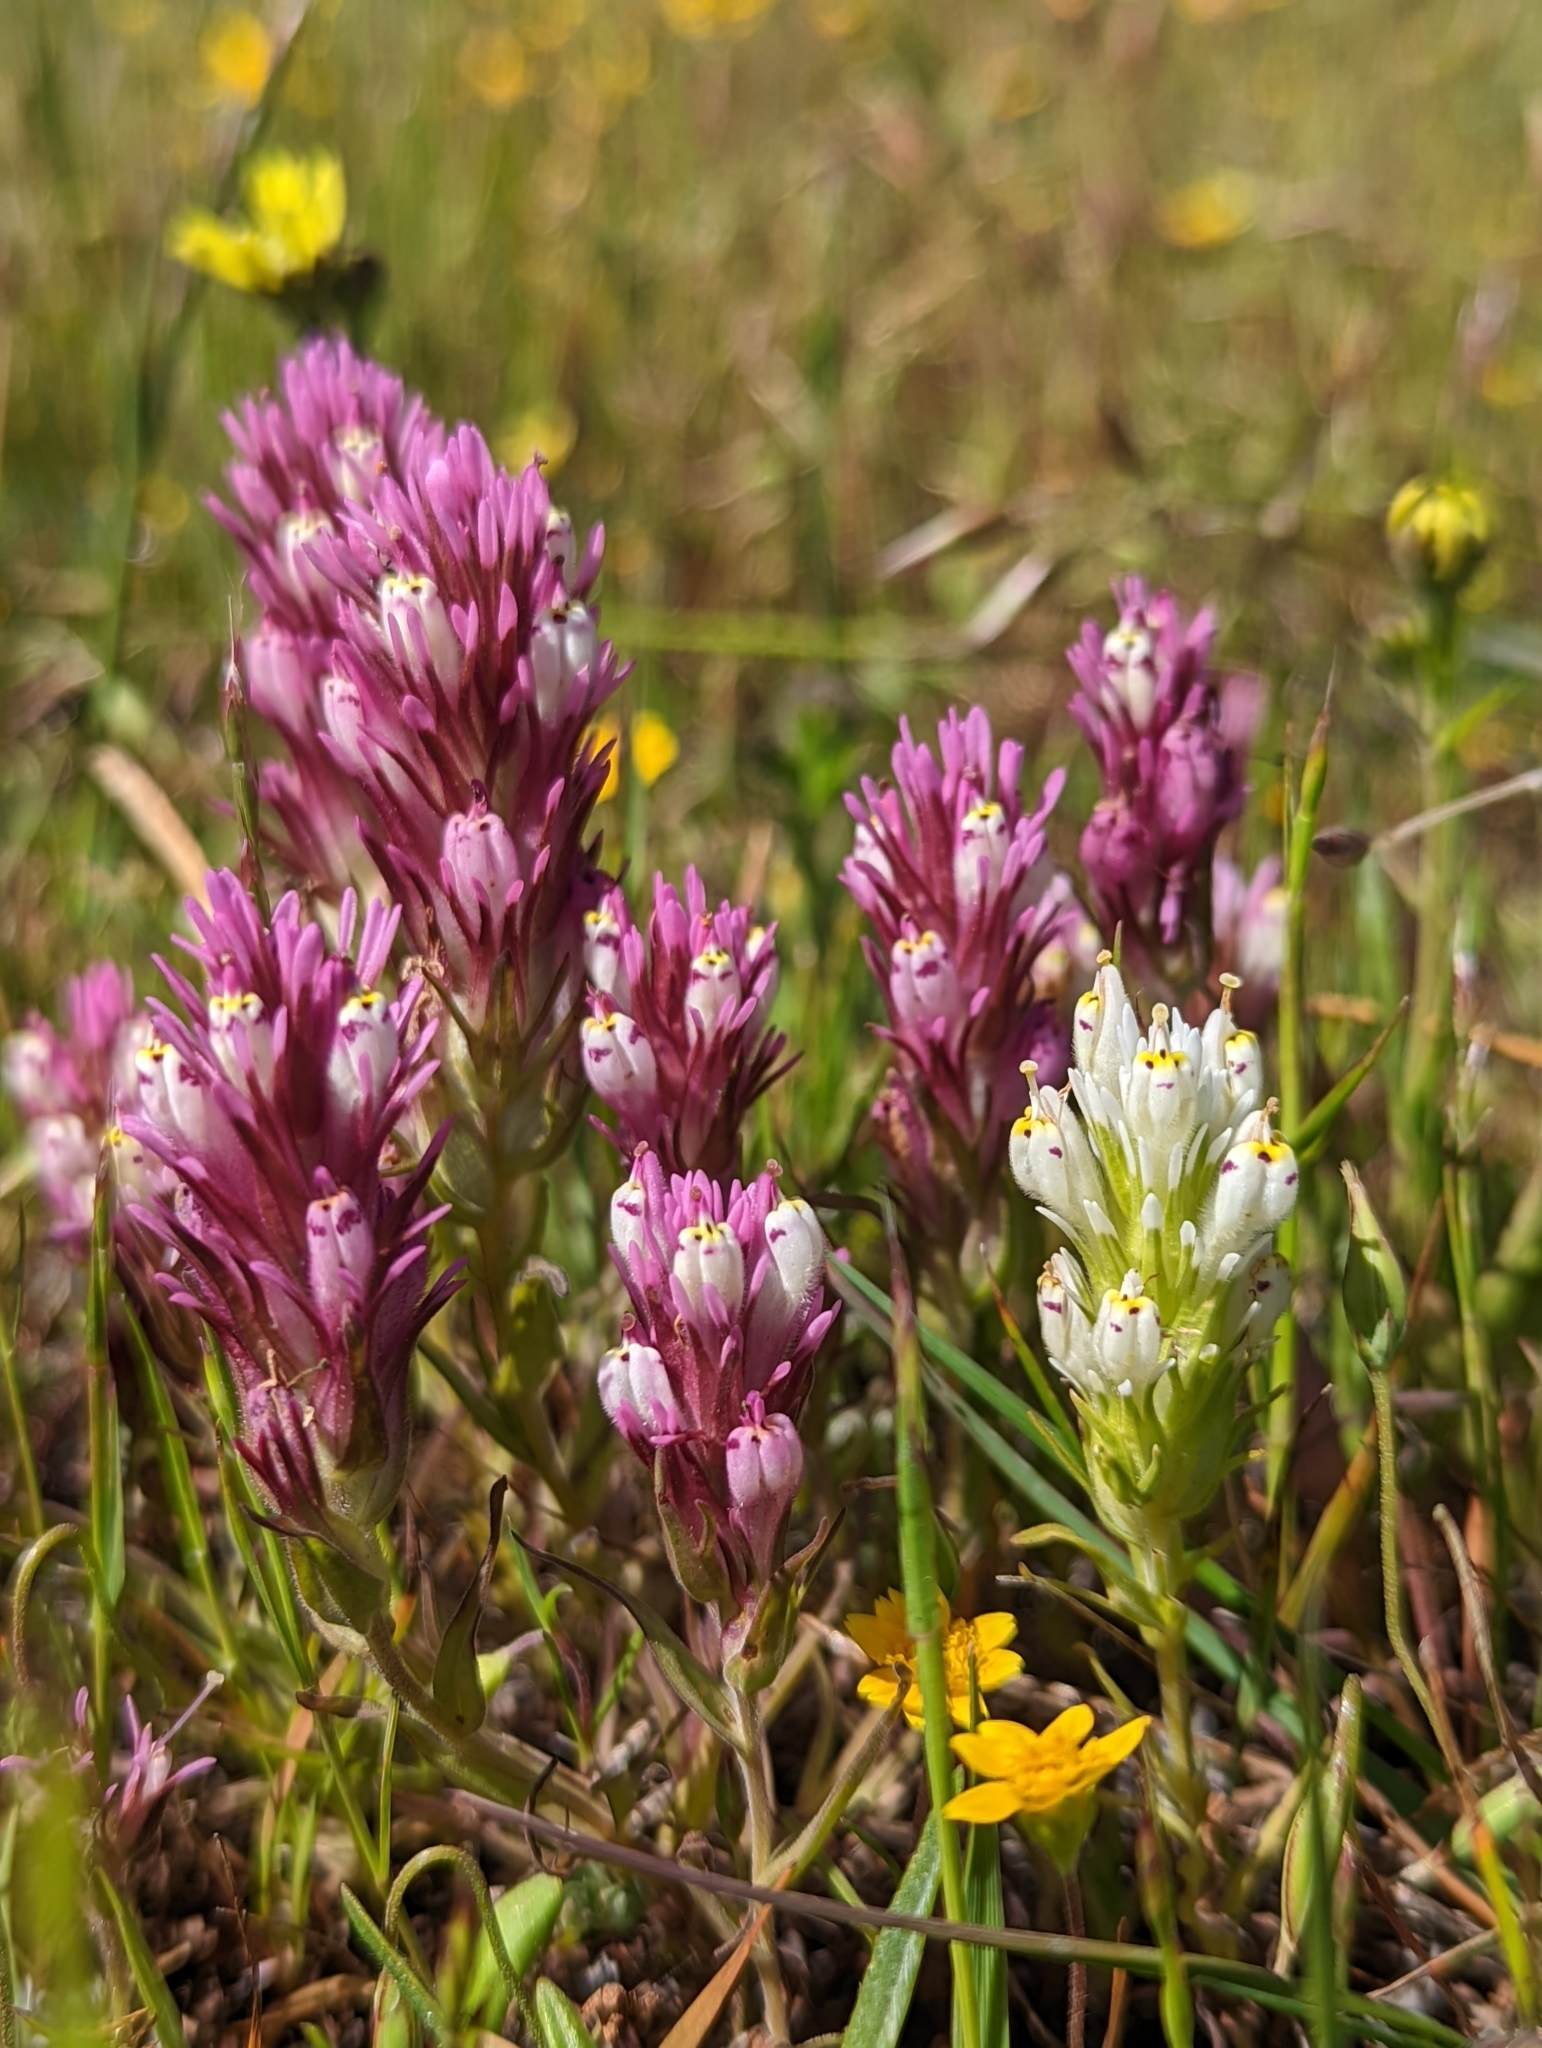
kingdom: Plantae
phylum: Tracheophyta
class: Magnoliopsida
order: Lamiales
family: Orobanchaceae
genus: Castilleja
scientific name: Castilleja densiflora
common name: Dense-flower indian paintbrush
